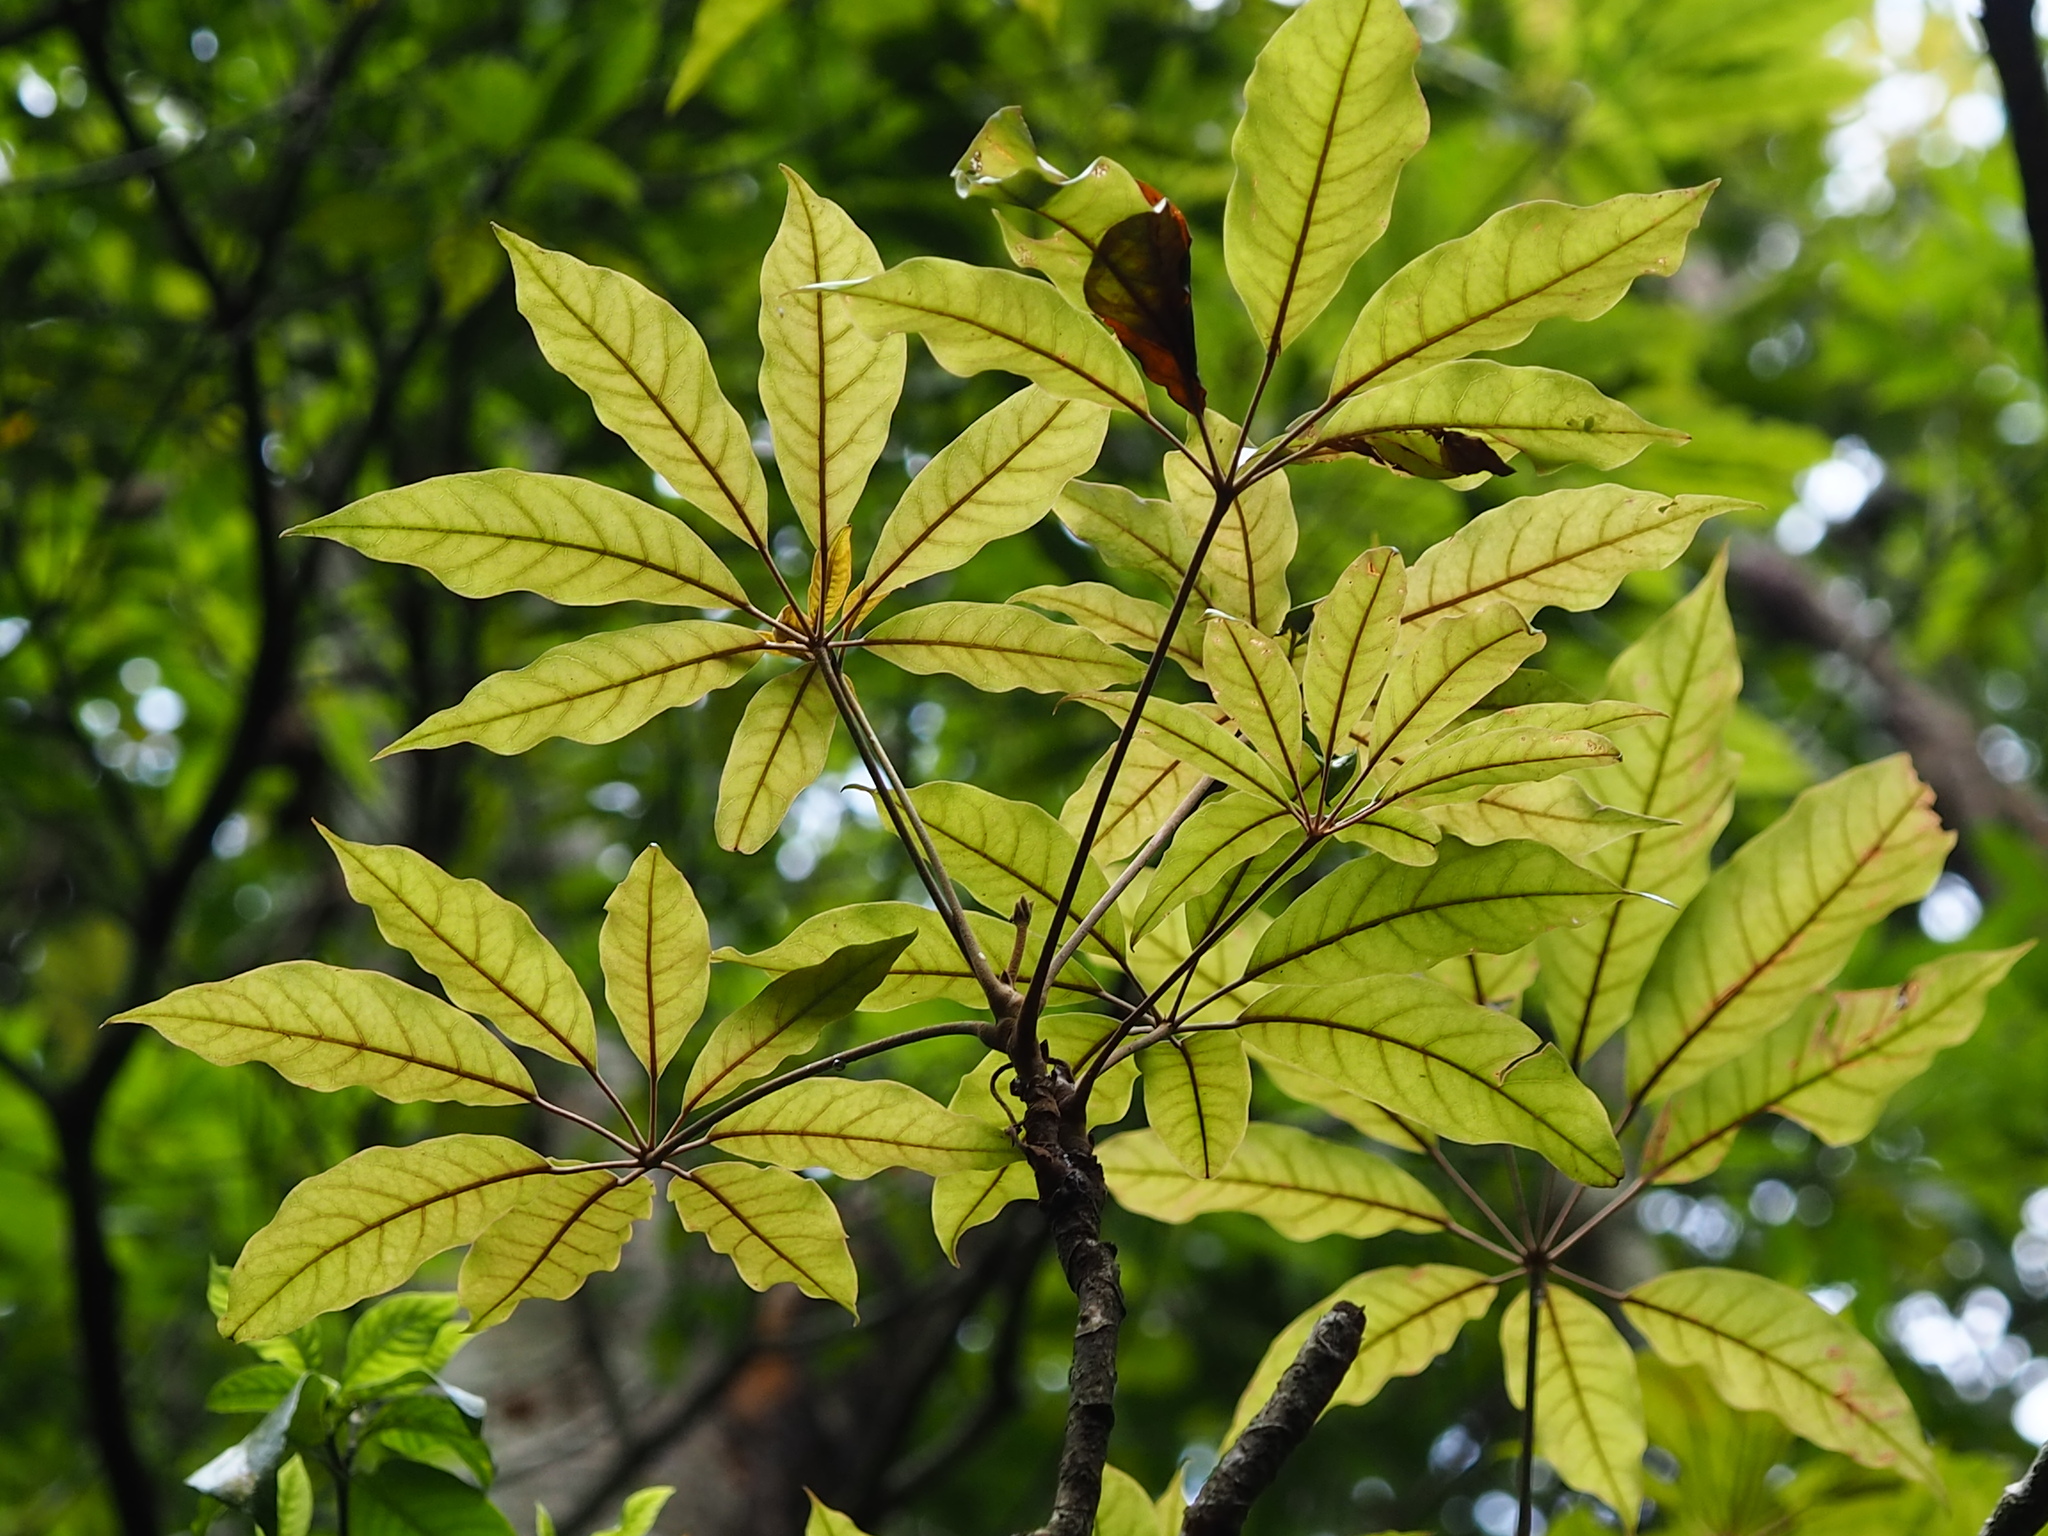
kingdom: Plantae
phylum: Tracheophyta
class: Magnoliopsida
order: Apiales
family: Araliaceae
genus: Heptapleurum
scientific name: Heptapleurum heptaphyllum
